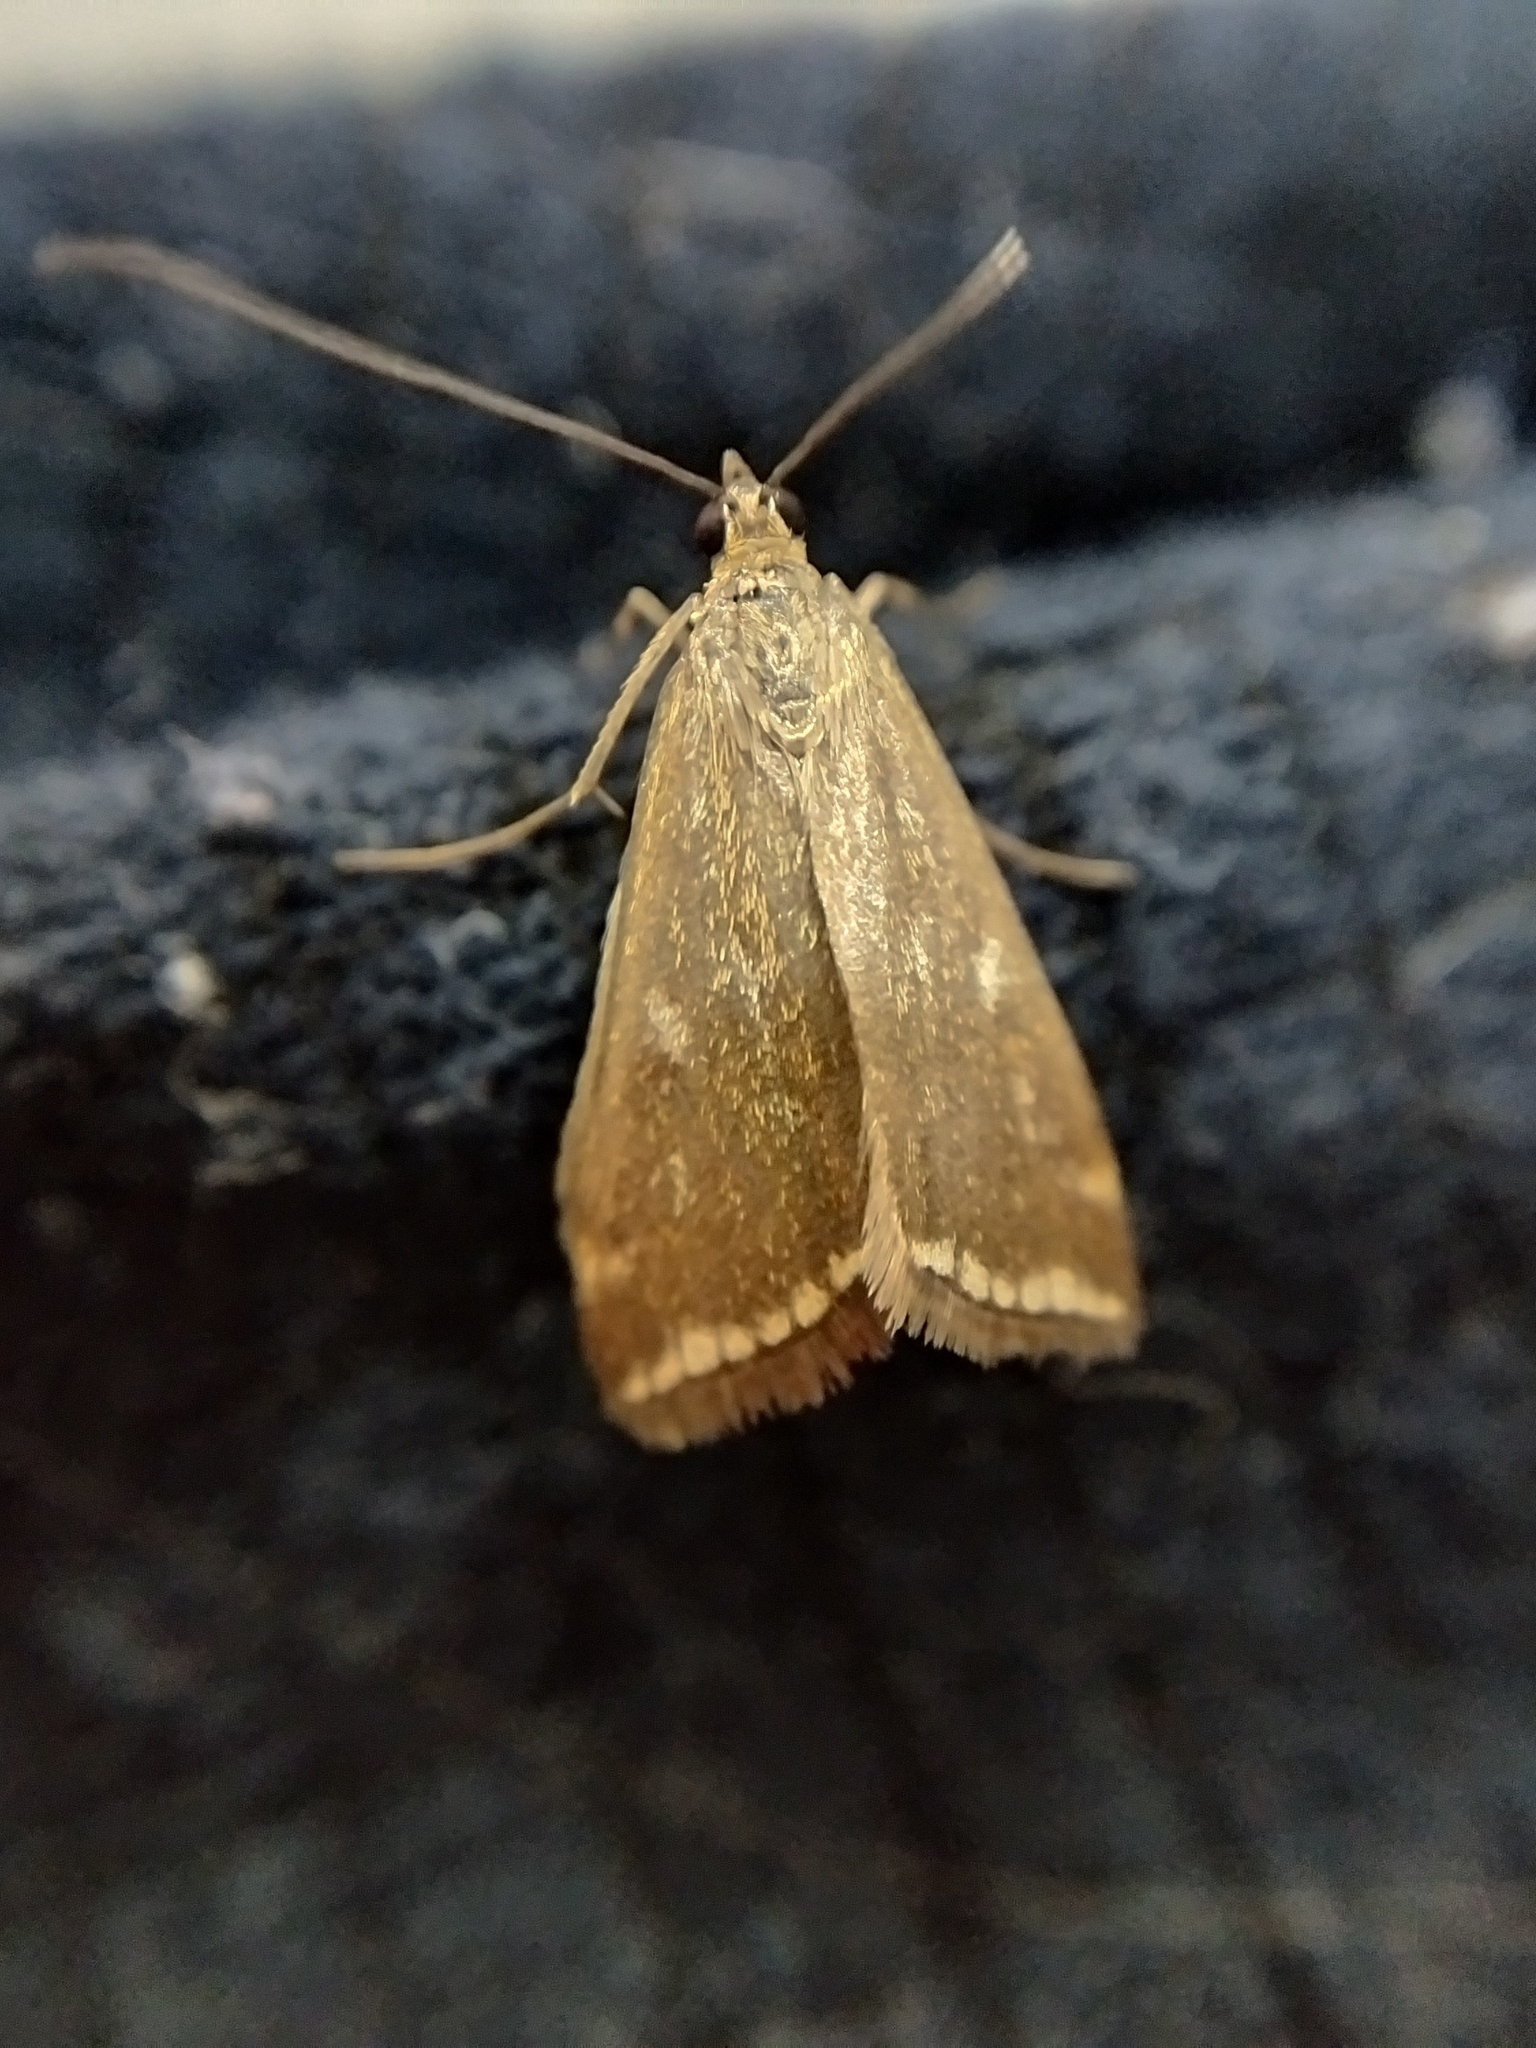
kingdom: Animalia
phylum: Arthropoda
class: Insecta
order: Lepidoptera
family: Crambidae
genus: Loxostege
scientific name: Loxostege sticticalis
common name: Crambid moth
